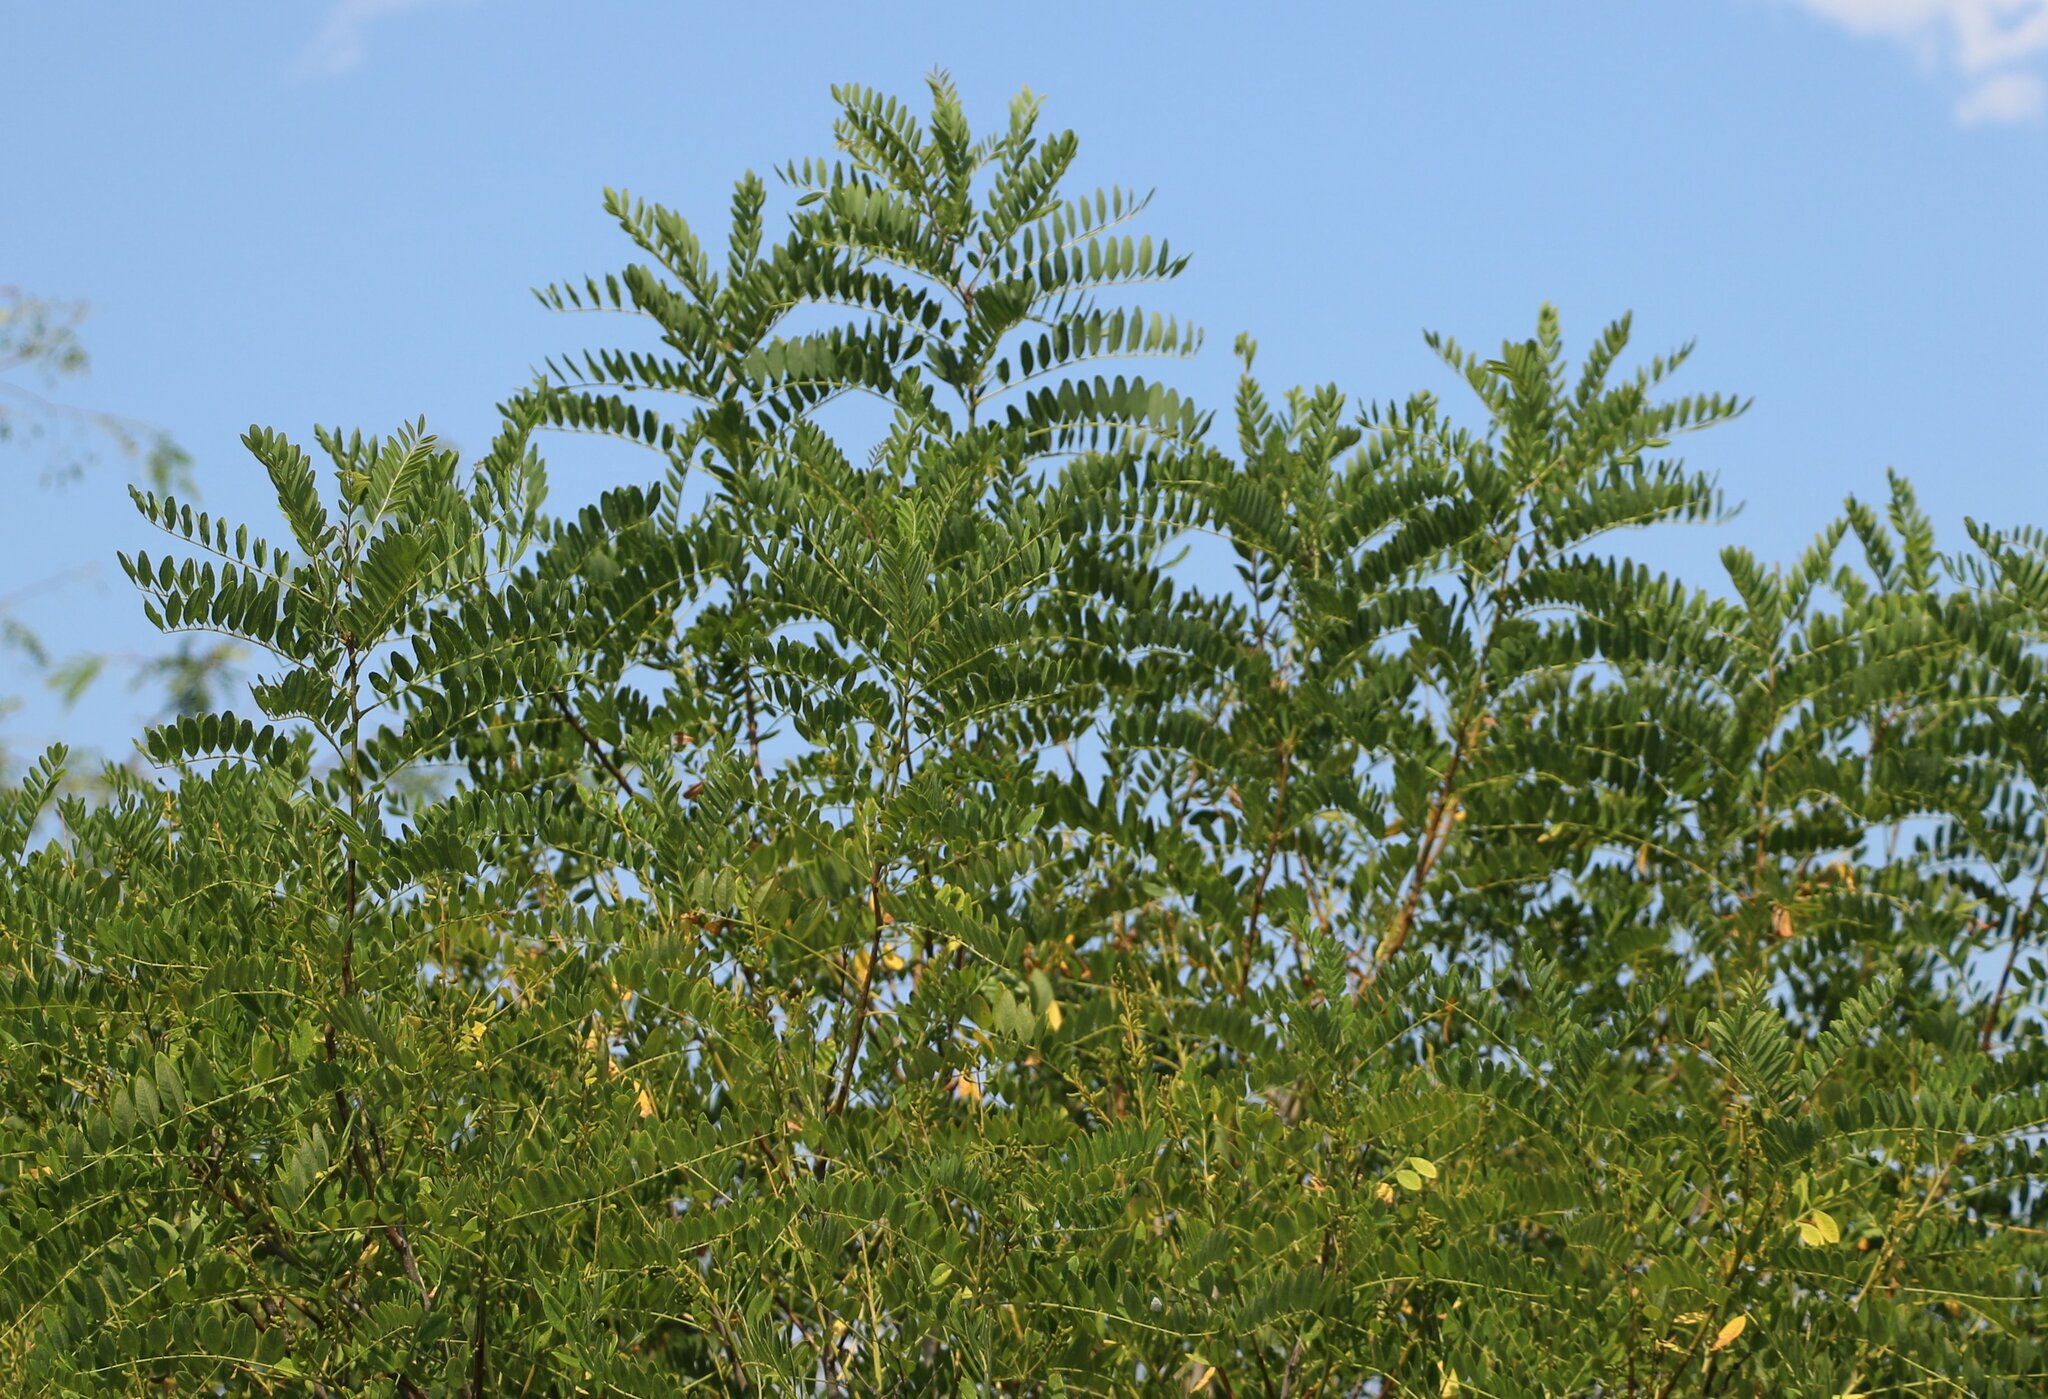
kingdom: Plantae
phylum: Tracheophyta
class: Magnoliopsida
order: Fabales
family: Fabaceae
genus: Amorpha
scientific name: Amorpha fruticosa
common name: False indigo
